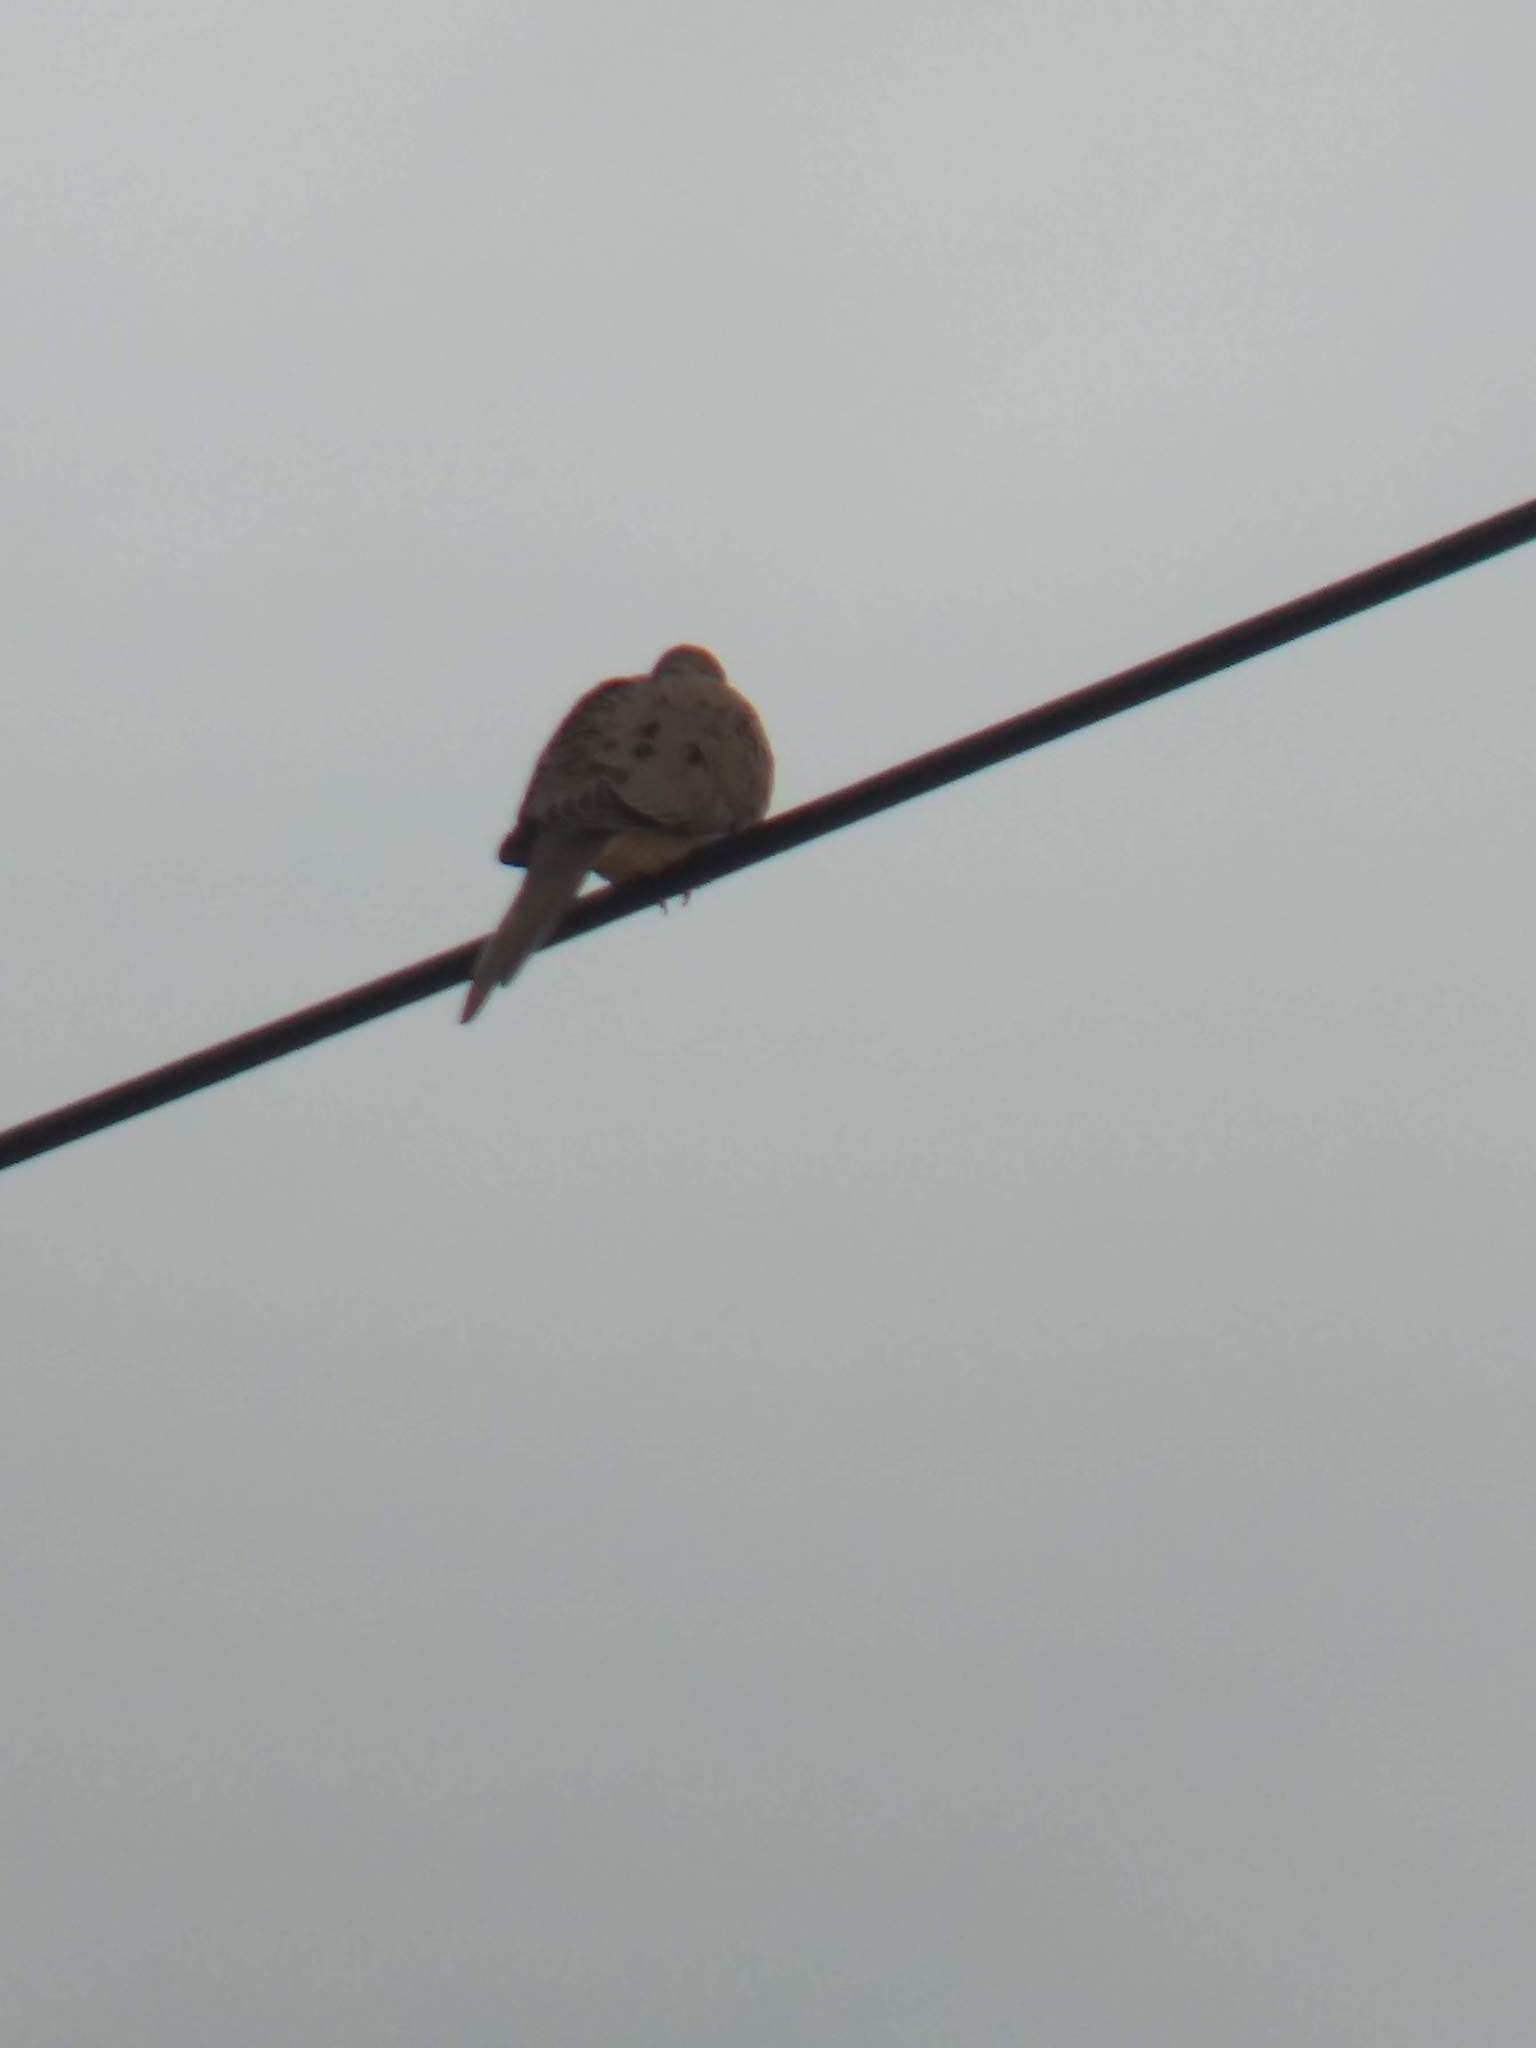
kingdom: Animalia
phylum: Chordata
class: Aves
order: Columbiformes
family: Columbidae
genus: Zenaida
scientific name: Zenaida macroura
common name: Mourning dove
